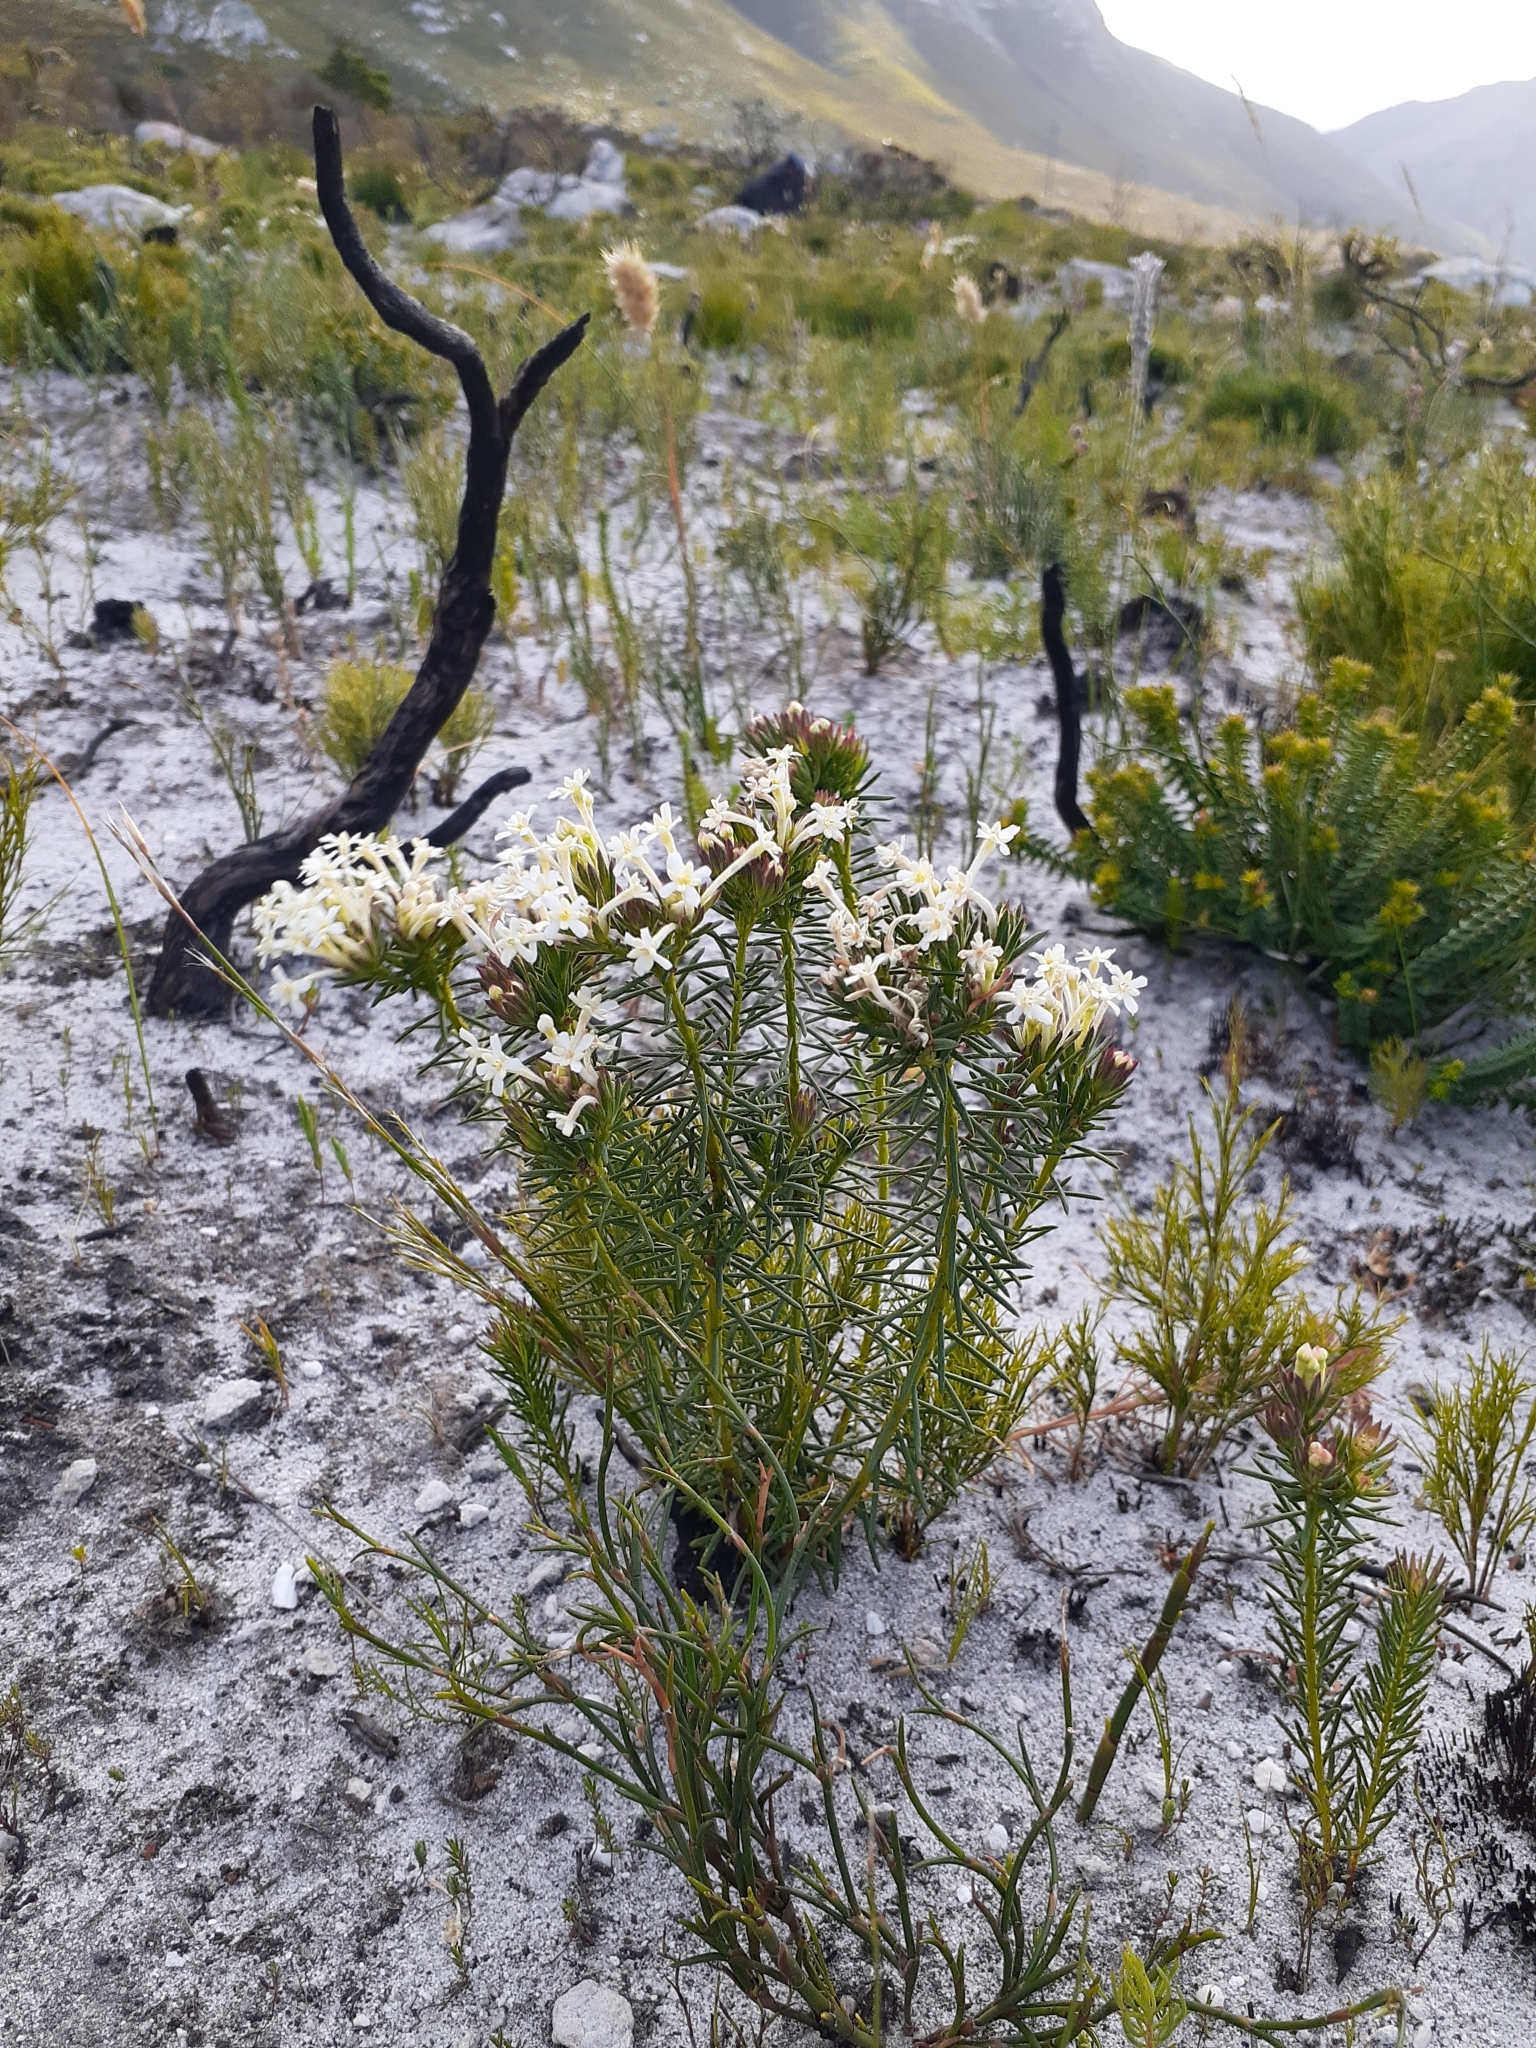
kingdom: Plantae
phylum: Tracheophyta
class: Magnoliopsida
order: Malvales
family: Thymelaeaceae
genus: Gnidia
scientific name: Gnidia pinifolia
